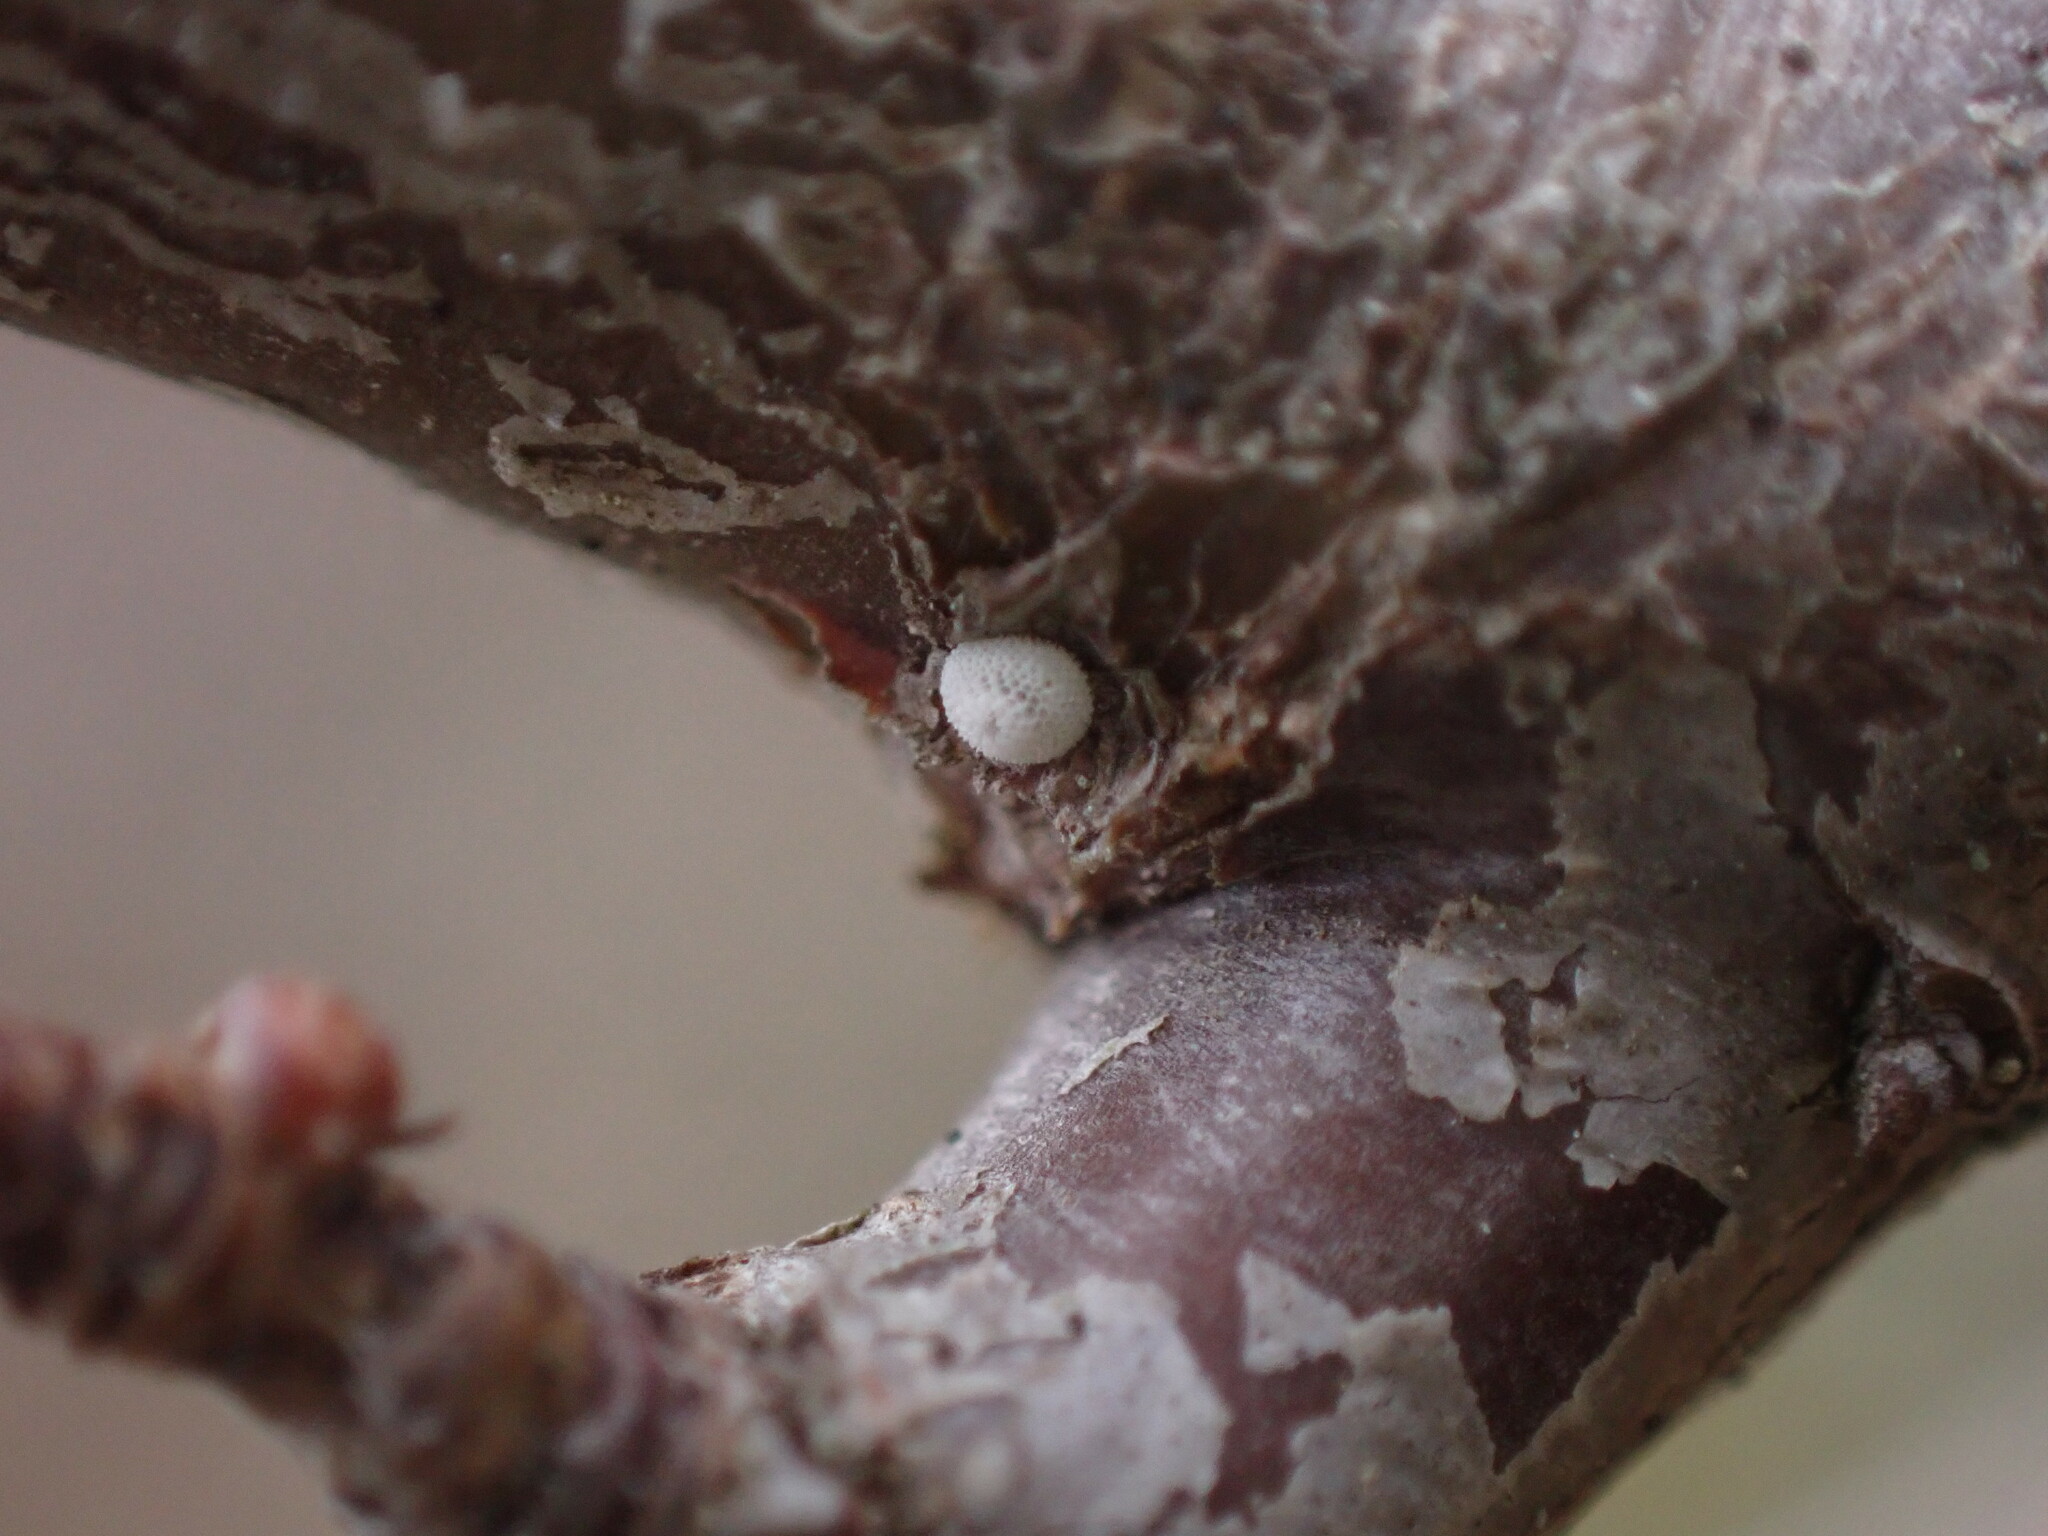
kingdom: Animalia
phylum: Arthropoda
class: Insecta
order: Lepidoptera
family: Lycaenidae
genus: Thecla
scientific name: Thecla betulae
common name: Brown hairstreak
